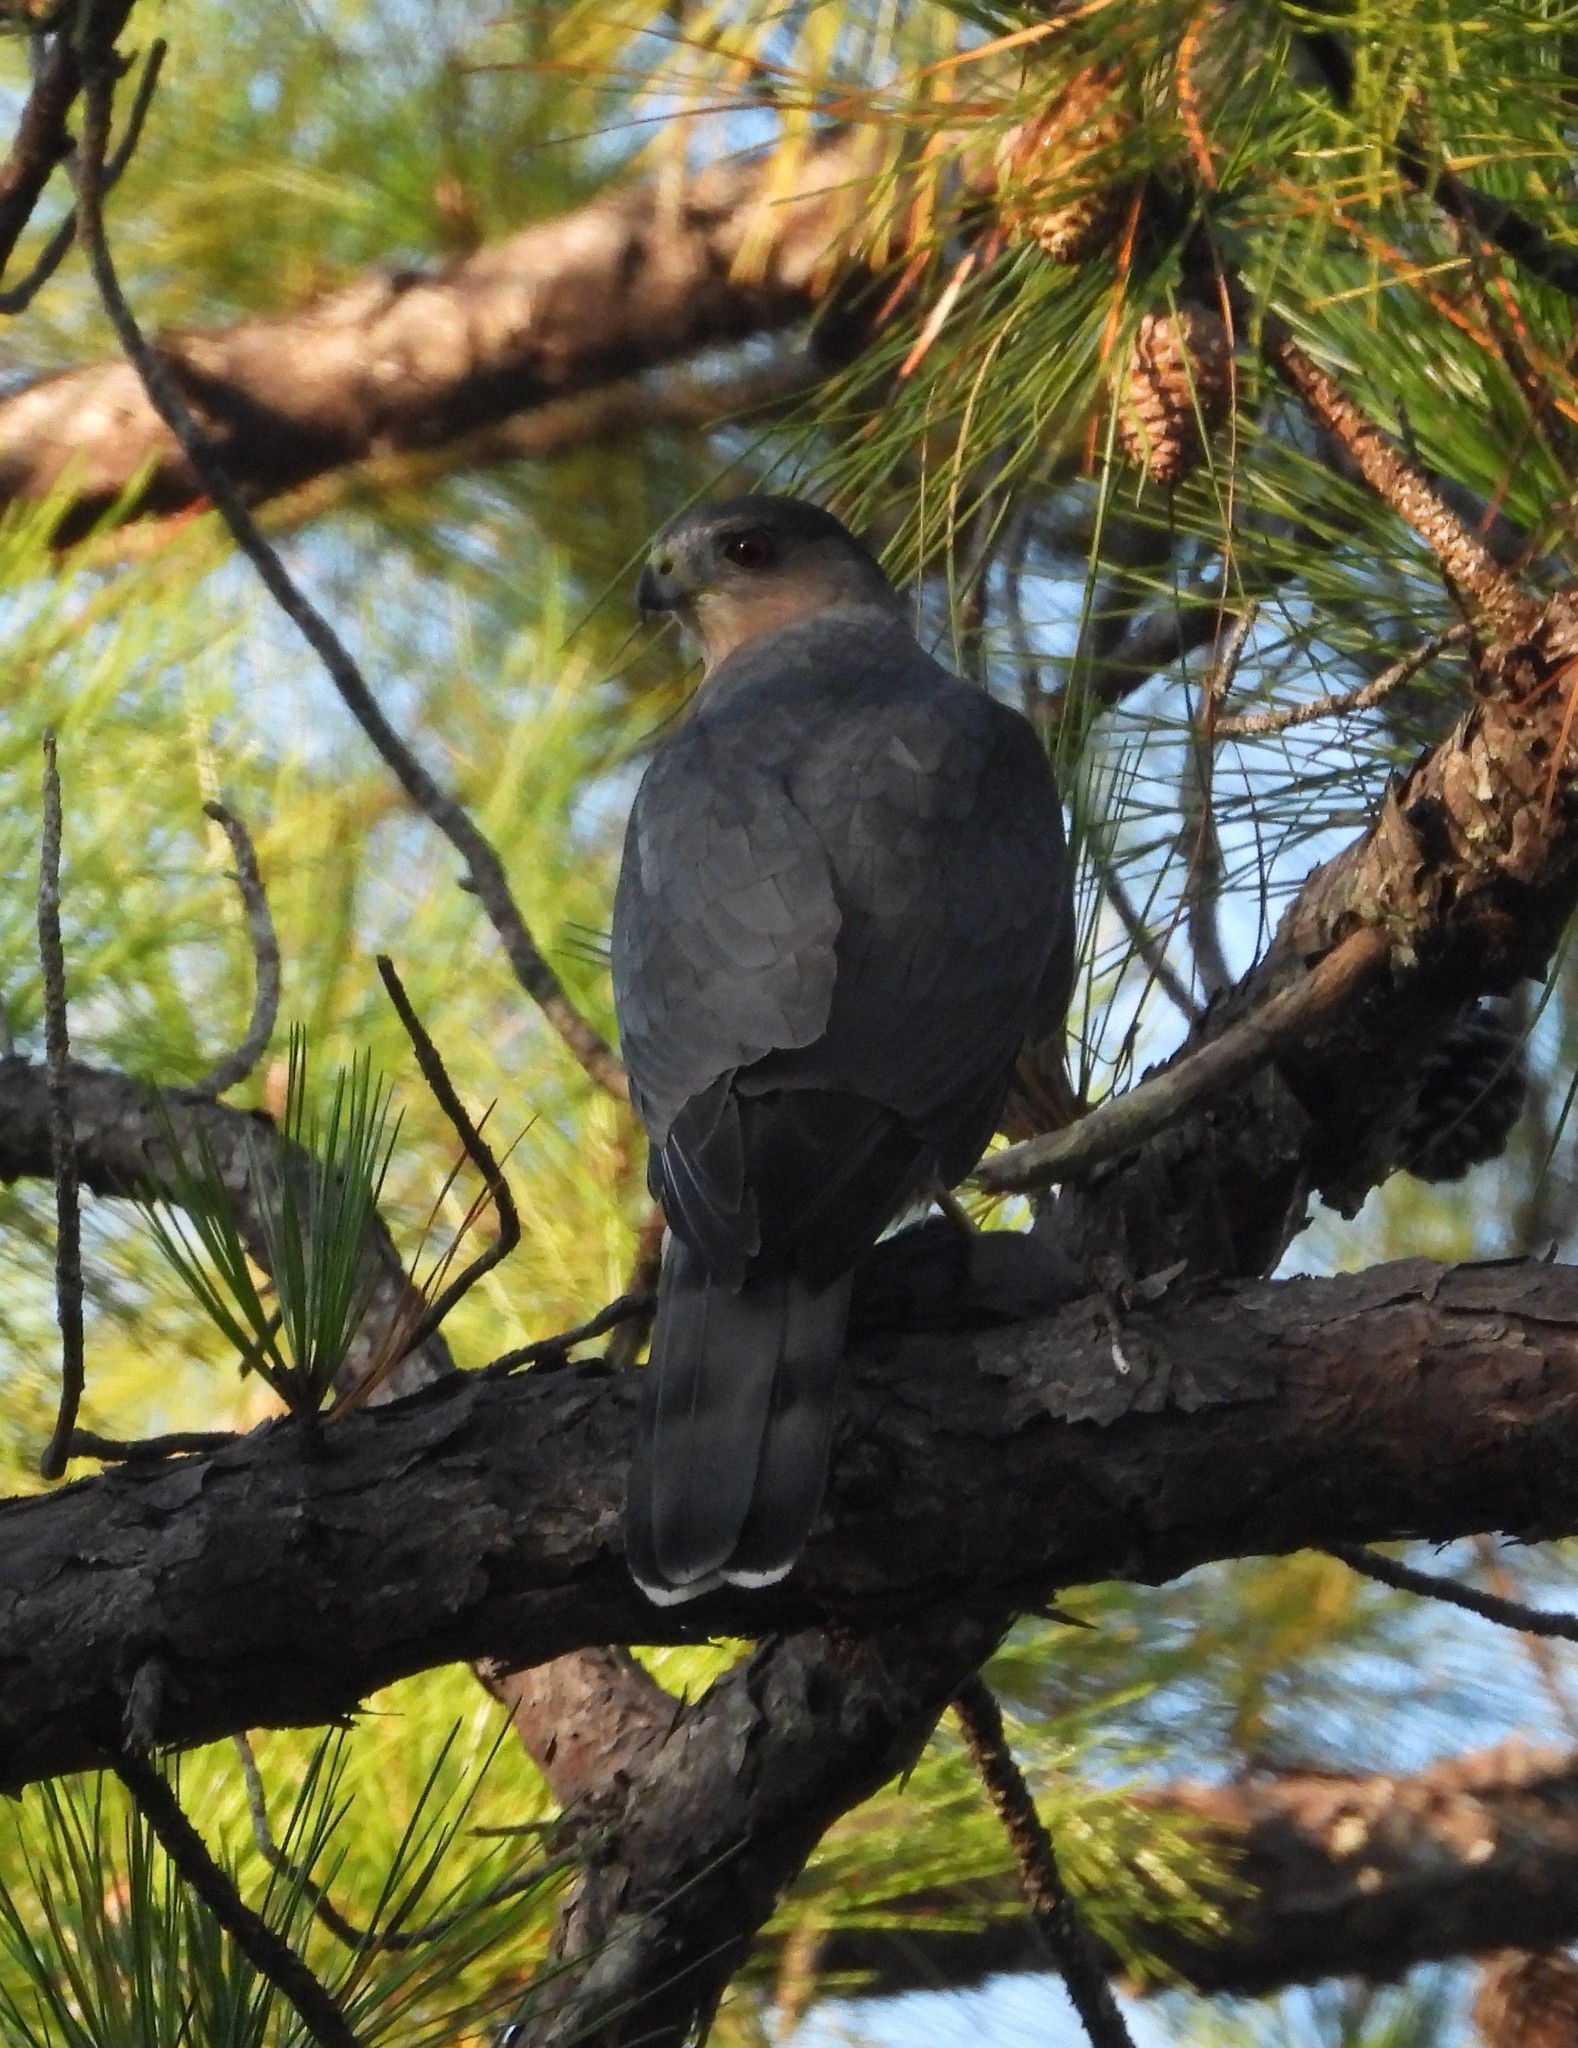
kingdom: Animalia
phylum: Chordata
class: Aves
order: Accipitriformes
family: Accipitridae
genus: Accipiter
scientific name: Accipiter cooperii
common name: Cooper's hawk
